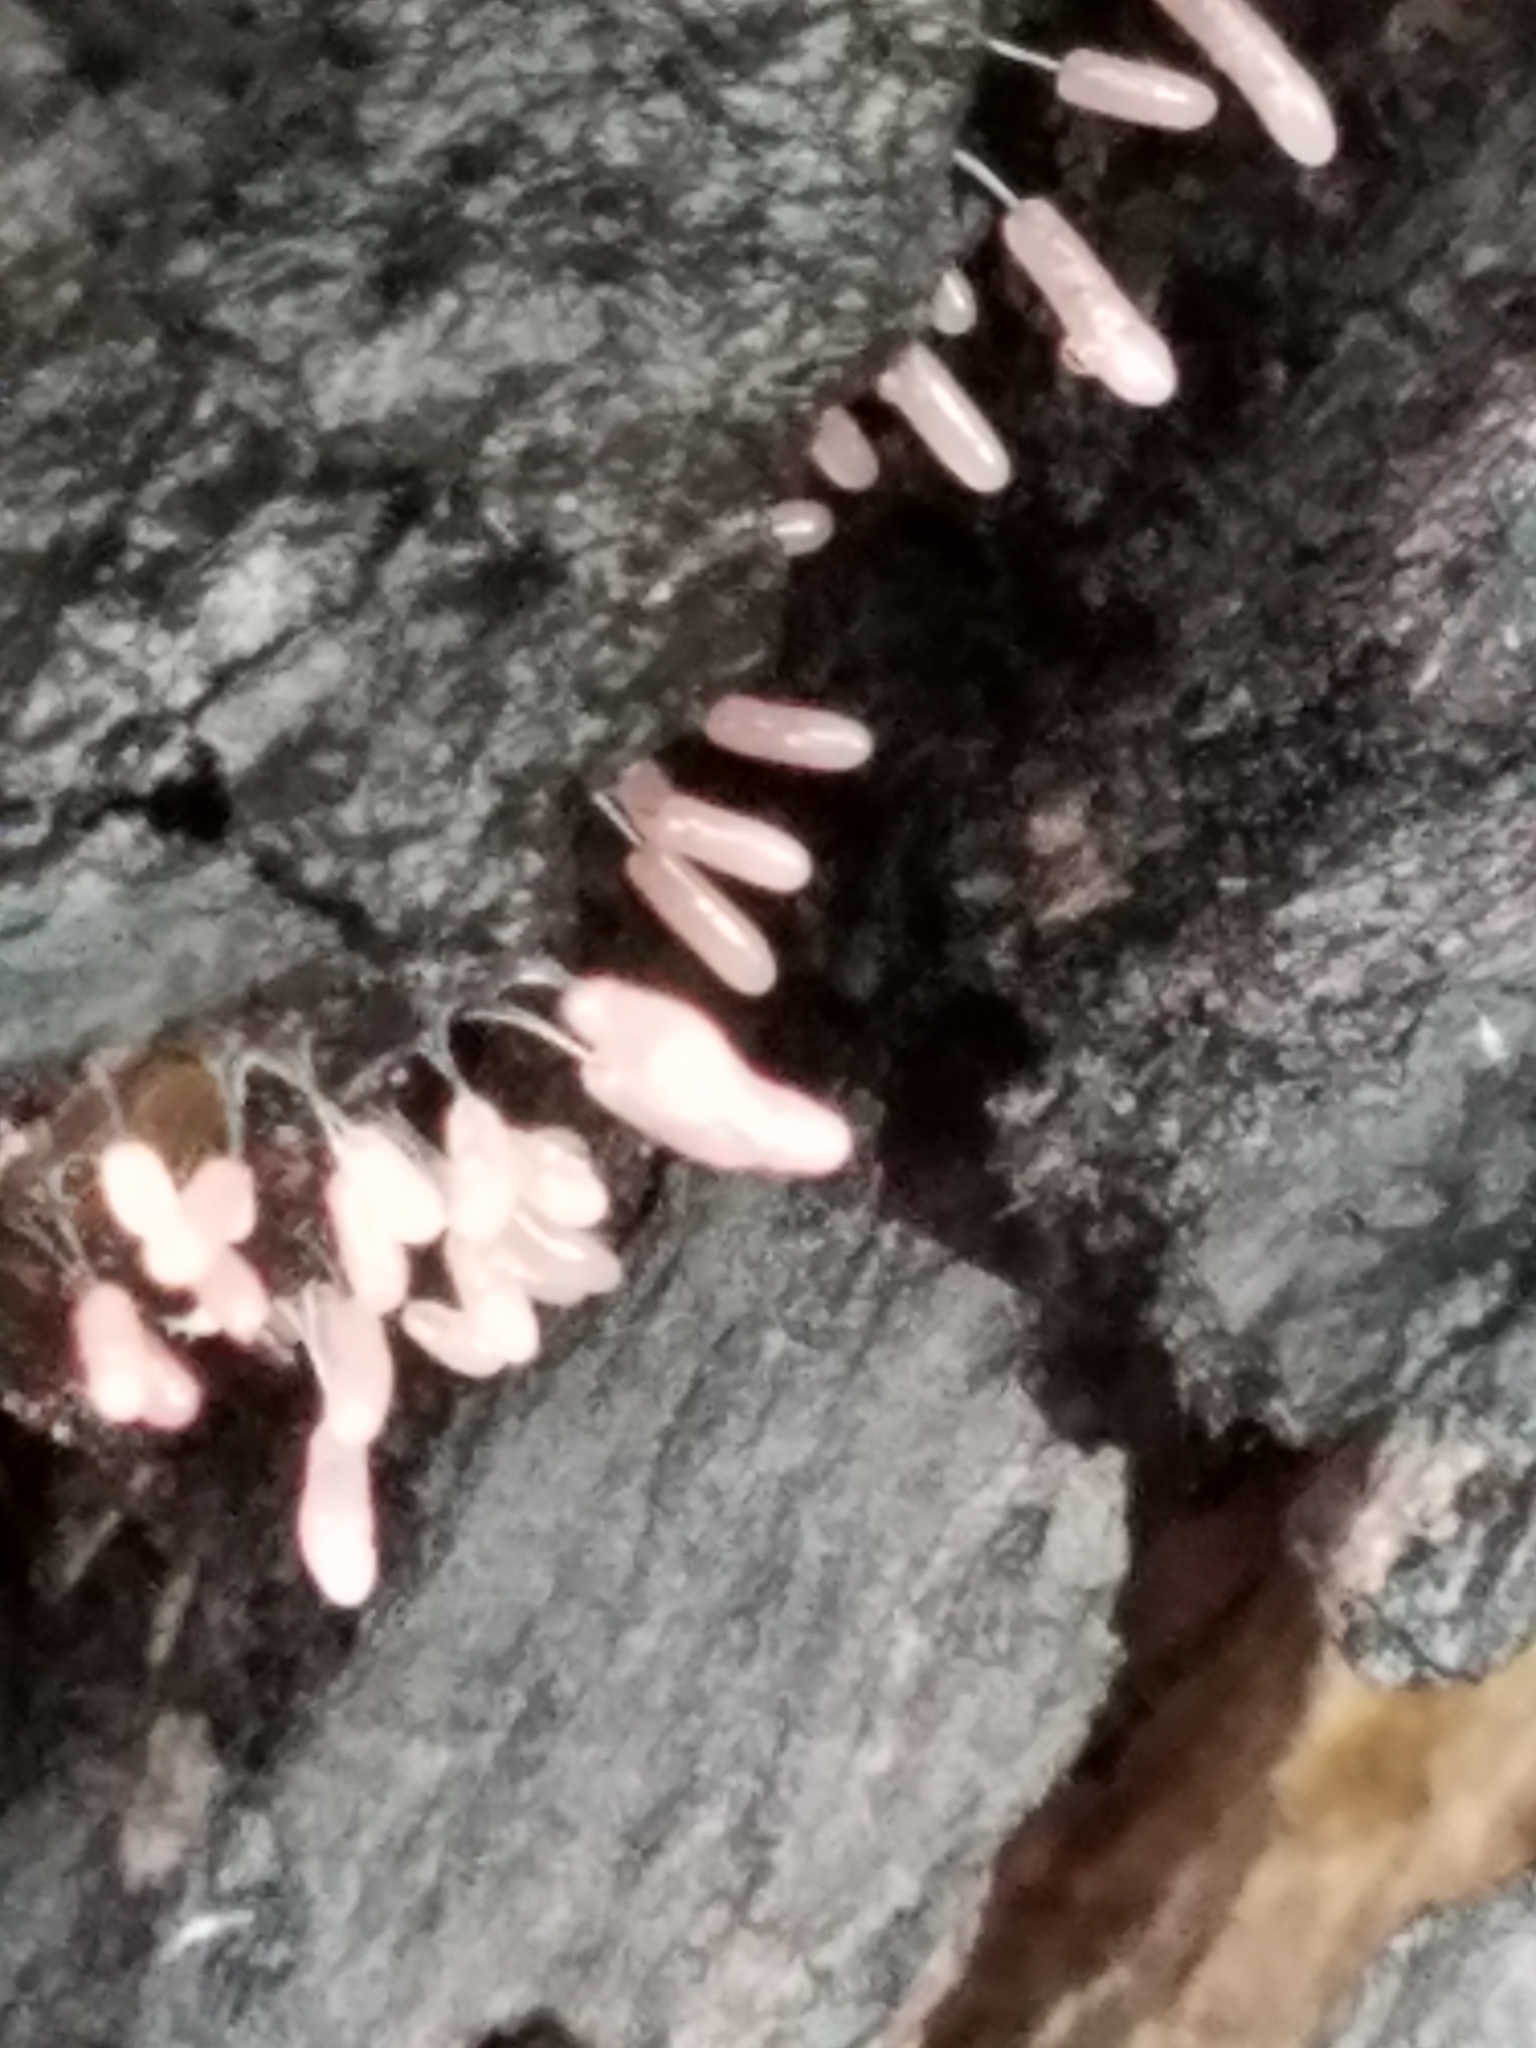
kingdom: Protozoa
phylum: Mycetozoa
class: Myxomycetes
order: Stemonitidales
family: Stemonitidaceae
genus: Stemonitopsis
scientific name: Stemonitopsis typhina
